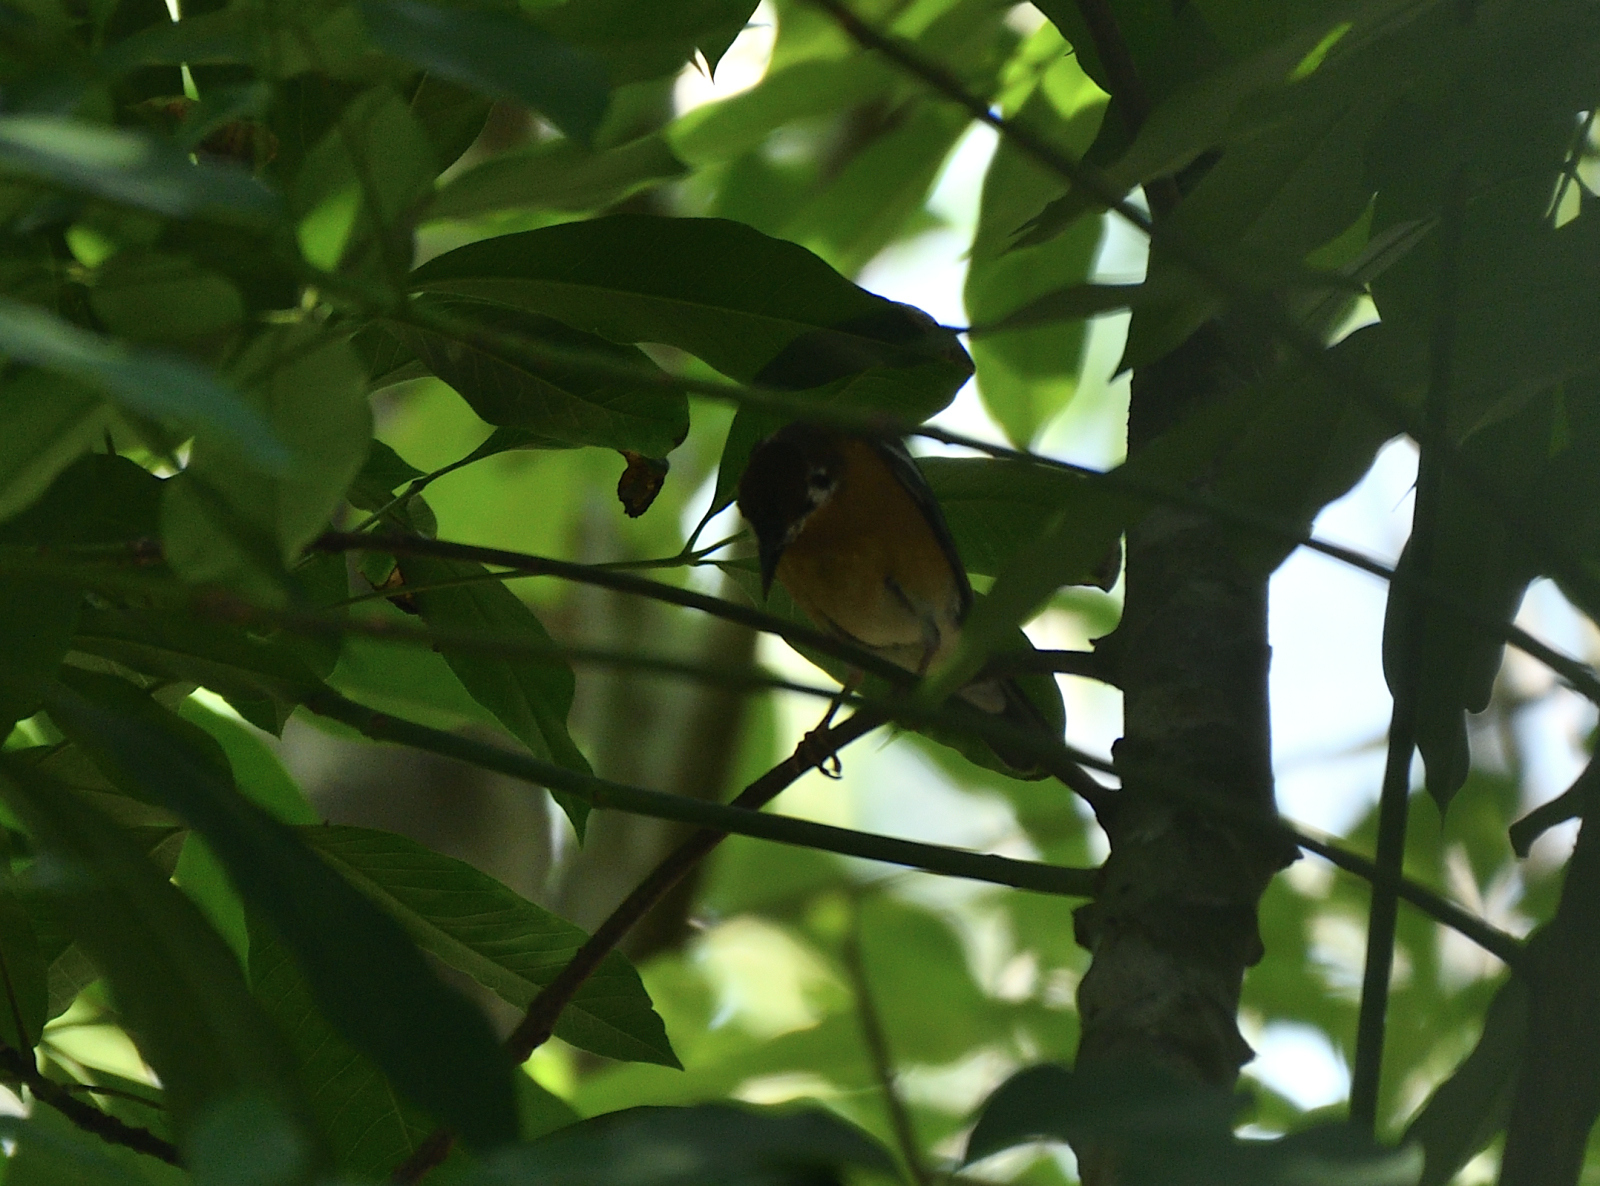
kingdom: Animalia
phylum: Chordata
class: Aves
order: Passeriformes
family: Turdidae
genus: Geokichla
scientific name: Geokichla citrina
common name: Orange-headed thrush
